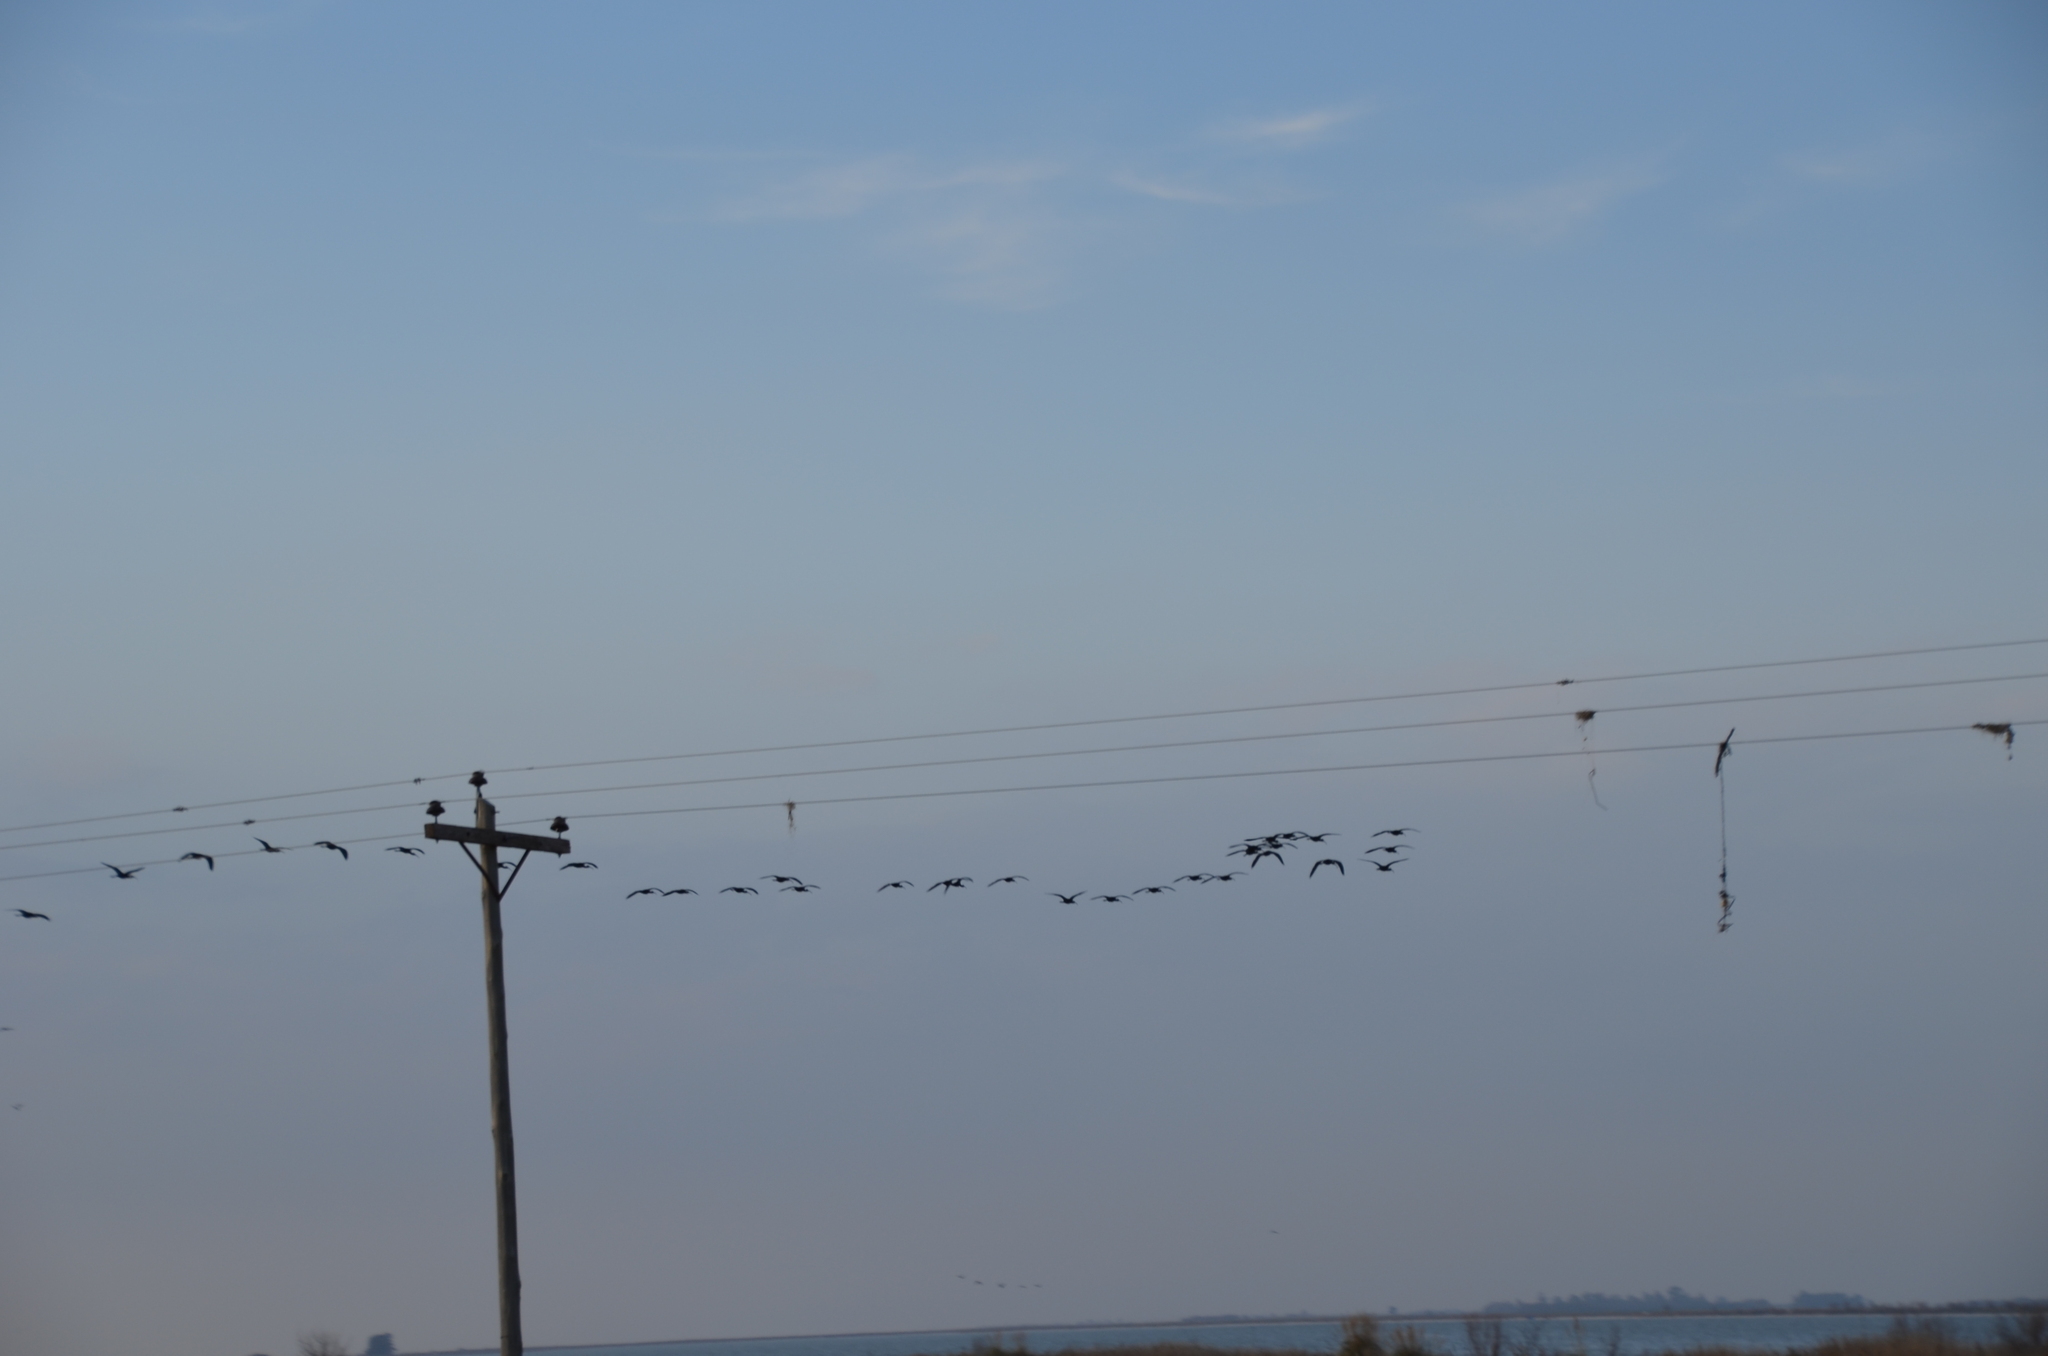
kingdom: Animalia
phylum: Chordata
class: Aves
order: Pelecaniformes
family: Threskiornithidae
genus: Plegadis
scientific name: Plegadis chihi
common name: White-faced ibis
